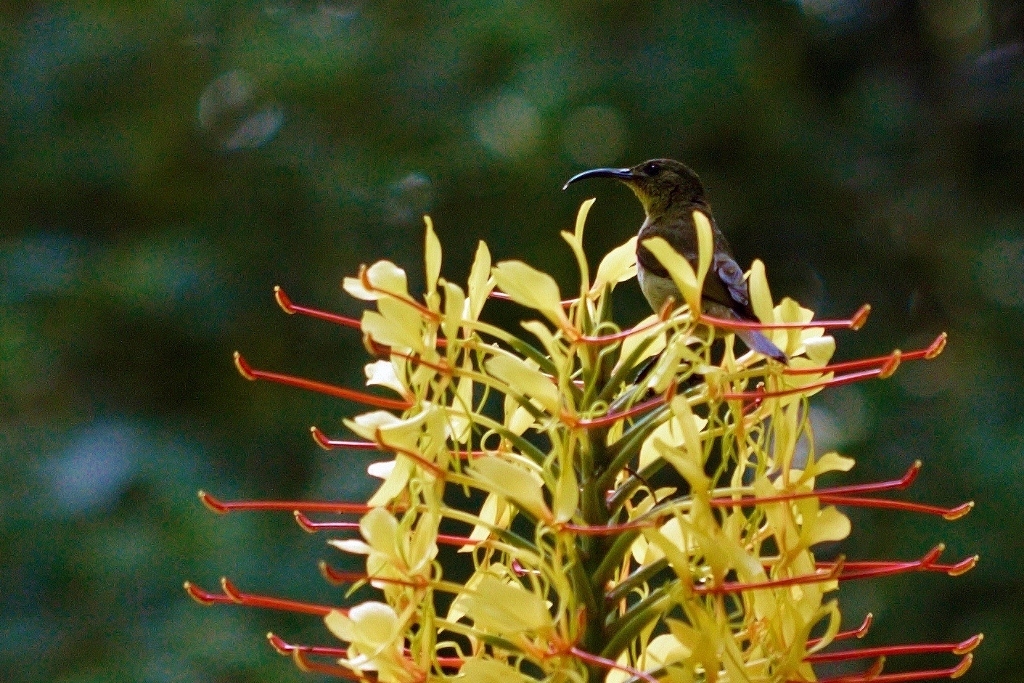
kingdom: Animalia
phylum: Chordata
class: Aves
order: Passeriformes
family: Nectariniidae
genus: Cyanomitra
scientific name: Cyanomitra olivacea
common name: Olive sunbird
